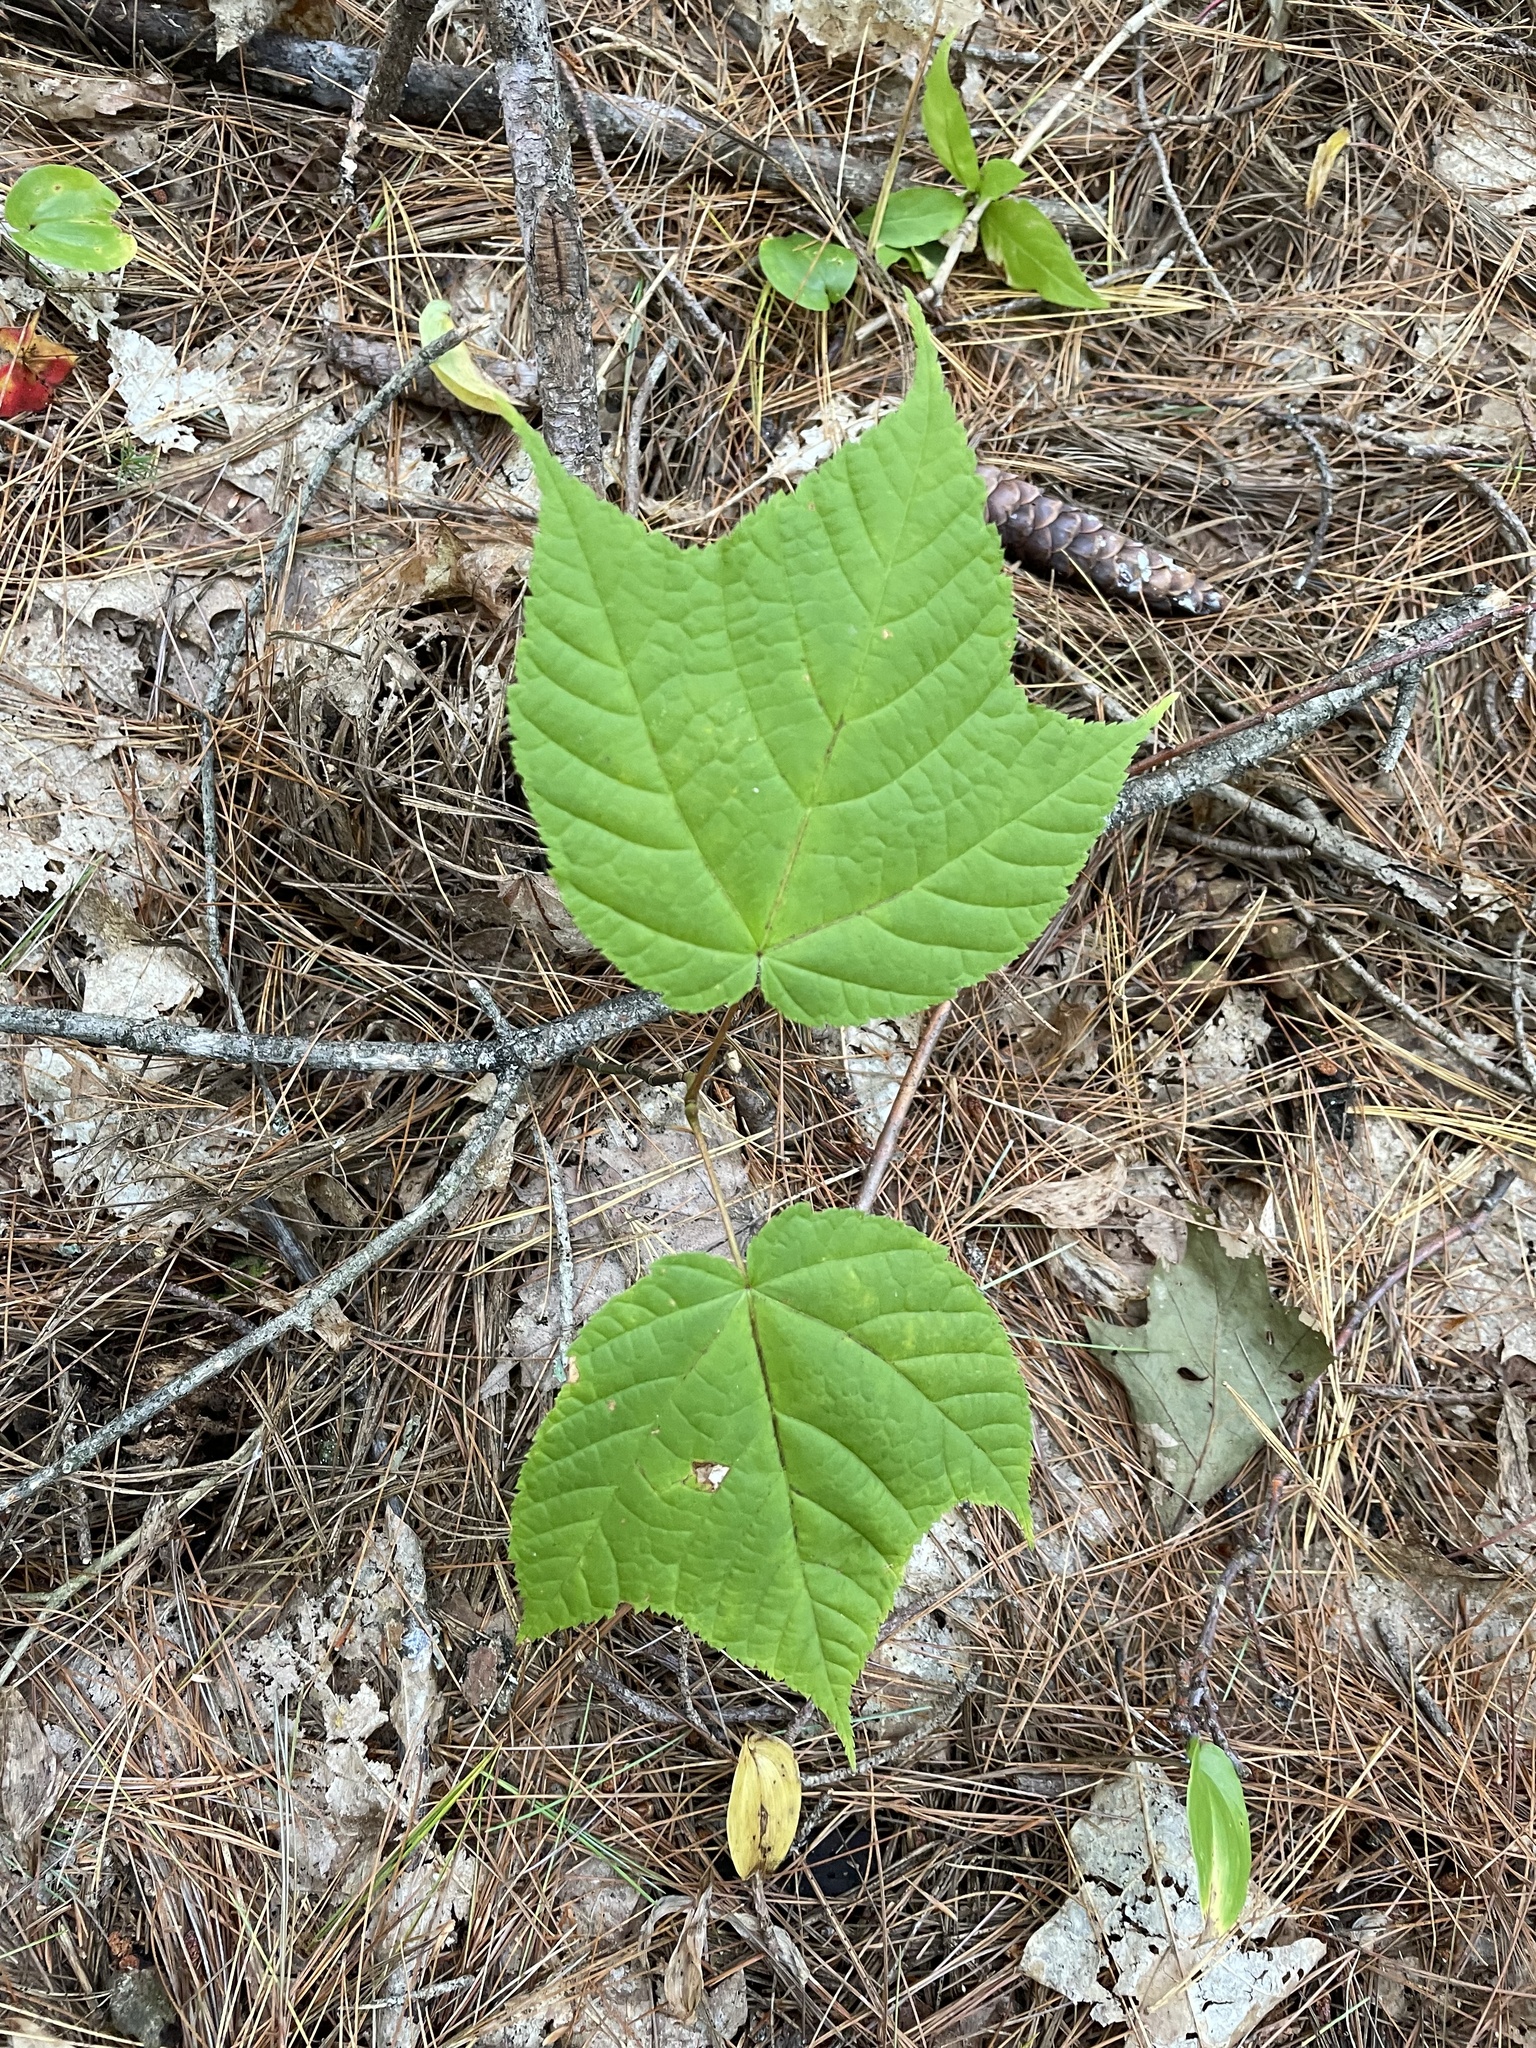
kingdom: Plantae
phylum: Tracheophyta
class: Magnoliopsida
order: Sapindales
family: Sapindaceae
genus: Acer
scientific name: Acer pensylvanicum
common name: Moosewood
